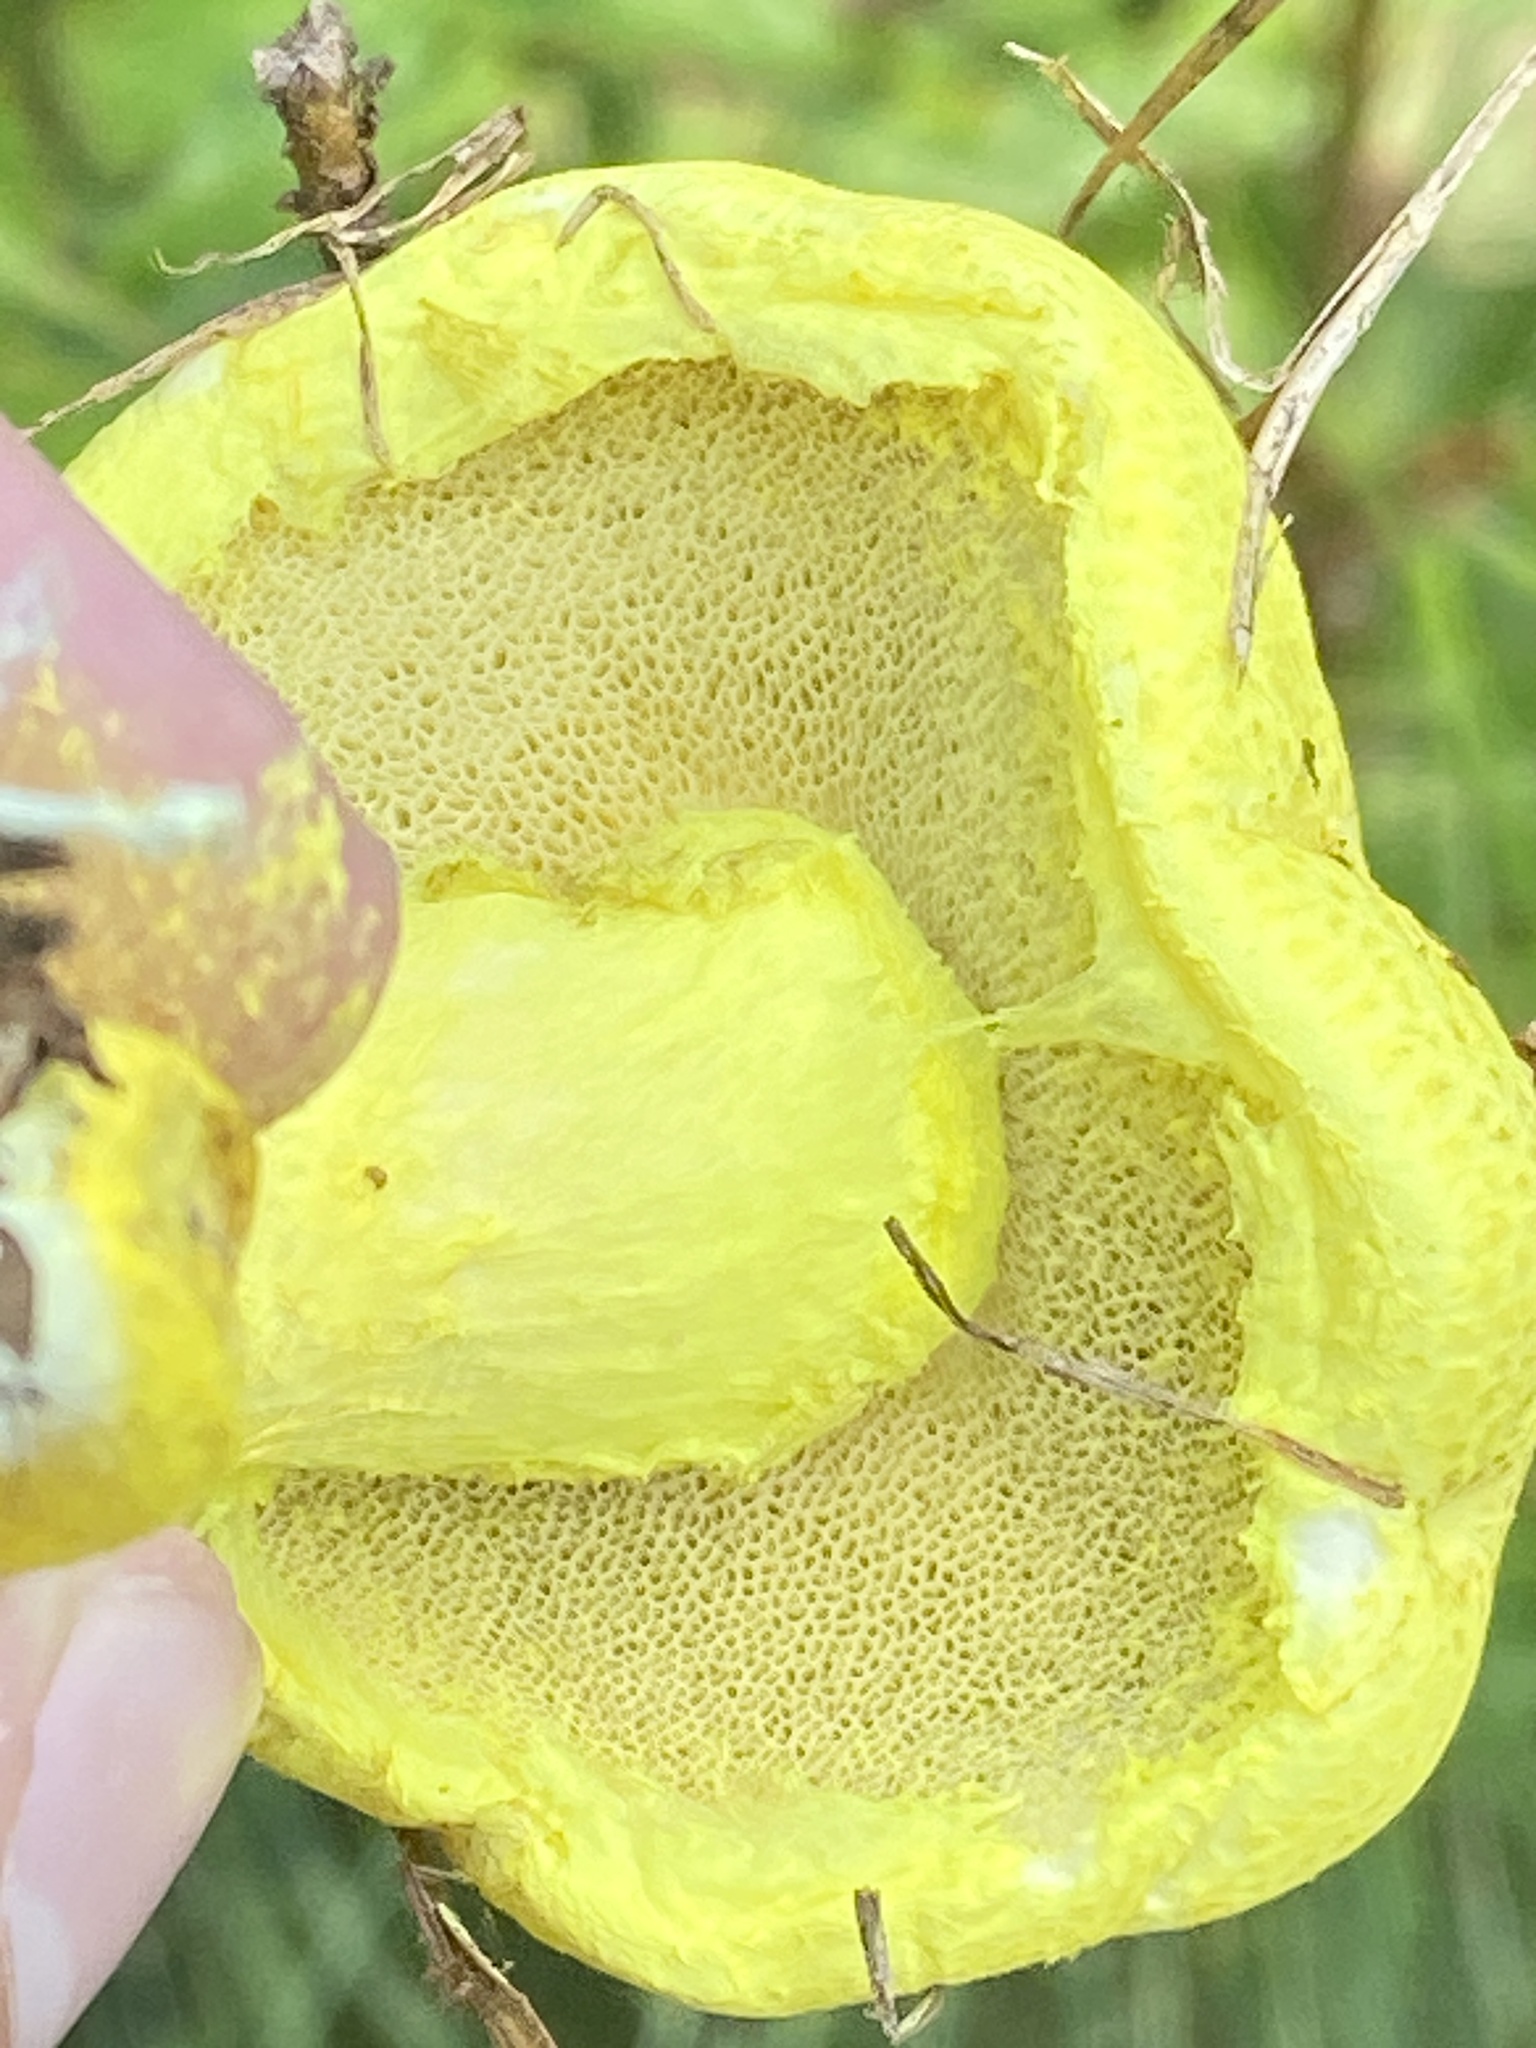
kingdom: Fungi
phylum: Basidiomycota
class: Agaricomycetes
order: Boletales
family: Boletaceae
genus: Pulveroboletus
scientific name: Pulveroboletus ravenelii
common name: Powdery sulfur bolete
